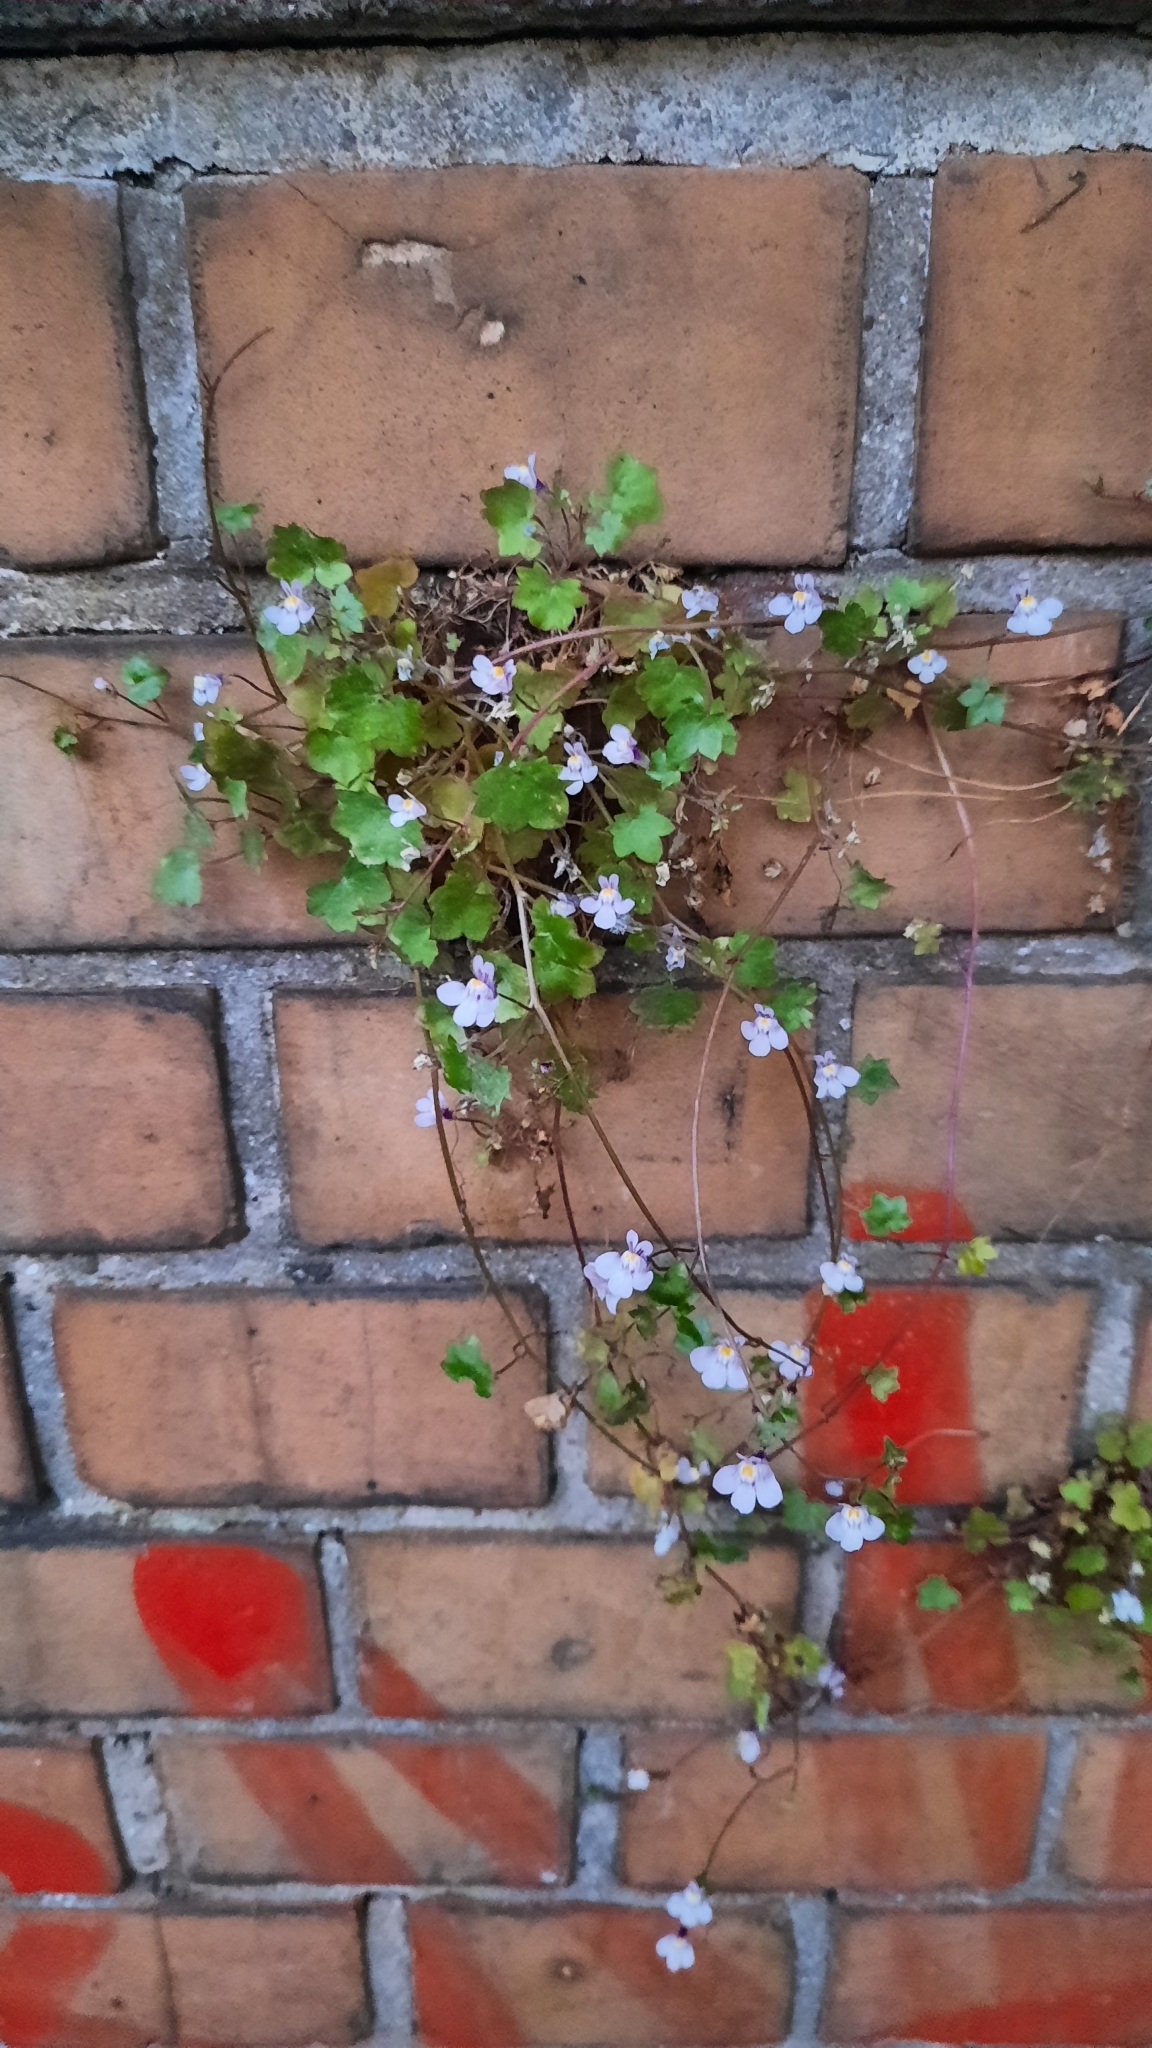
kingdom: Plantae
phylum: Tracheophyta
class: Magnoliopsida
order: Lamiales
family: Plantaginaceae
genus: Cymbalaria
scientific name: Cymbalaria muralis
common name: Ivy-leaved toadflax
